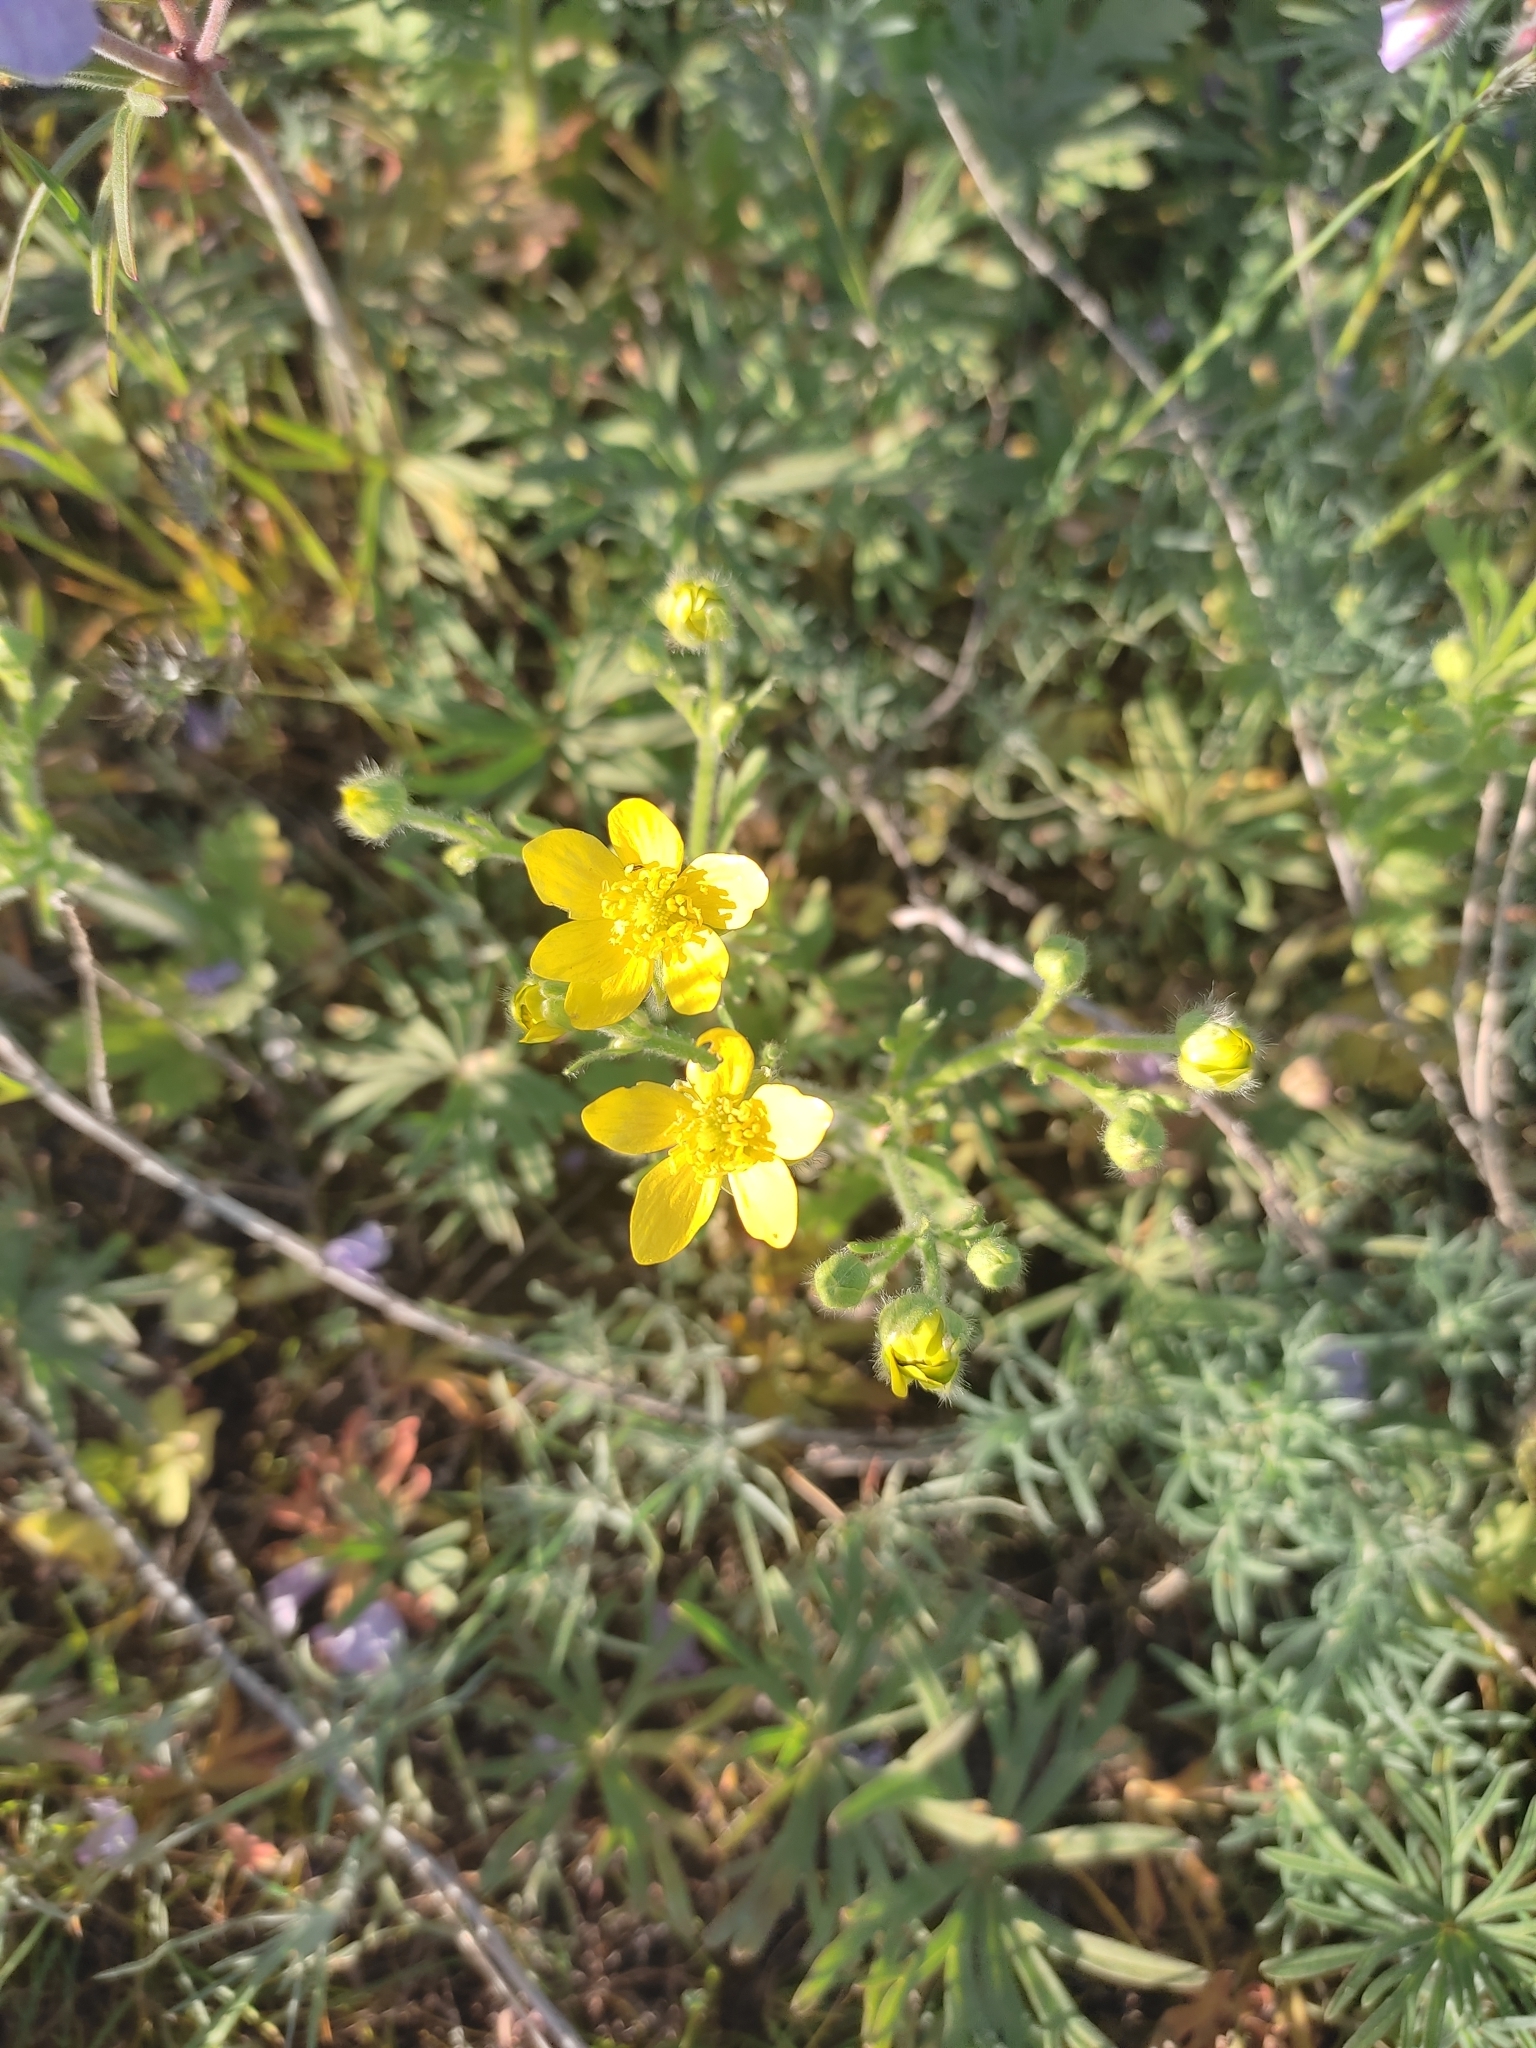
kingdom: Plantae
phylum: Tracheophyta
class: Magnoliopsida
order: Ranunculales
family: Ranunculaceae
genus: Ranunculus
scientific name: Ranunculus oxyspermus
